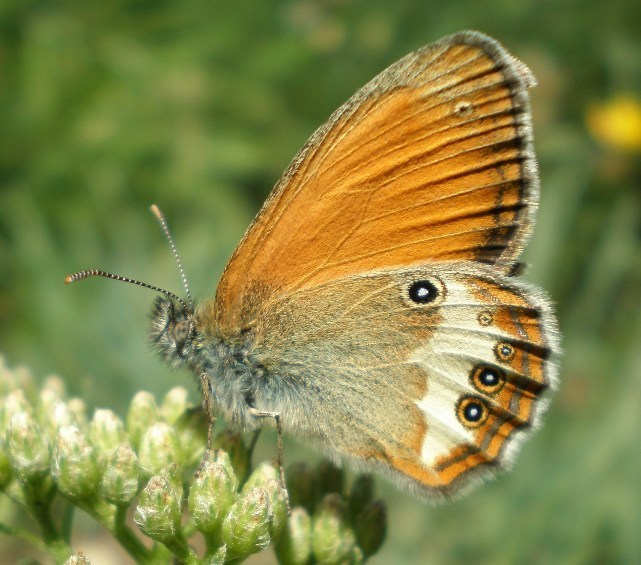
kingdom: Animalia
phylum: Arthropoda
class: Insecta
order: Lepidoptera
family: Nymphalidae
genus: Coenonympha
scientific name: Coenonympha arcania
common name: Pearly heath
